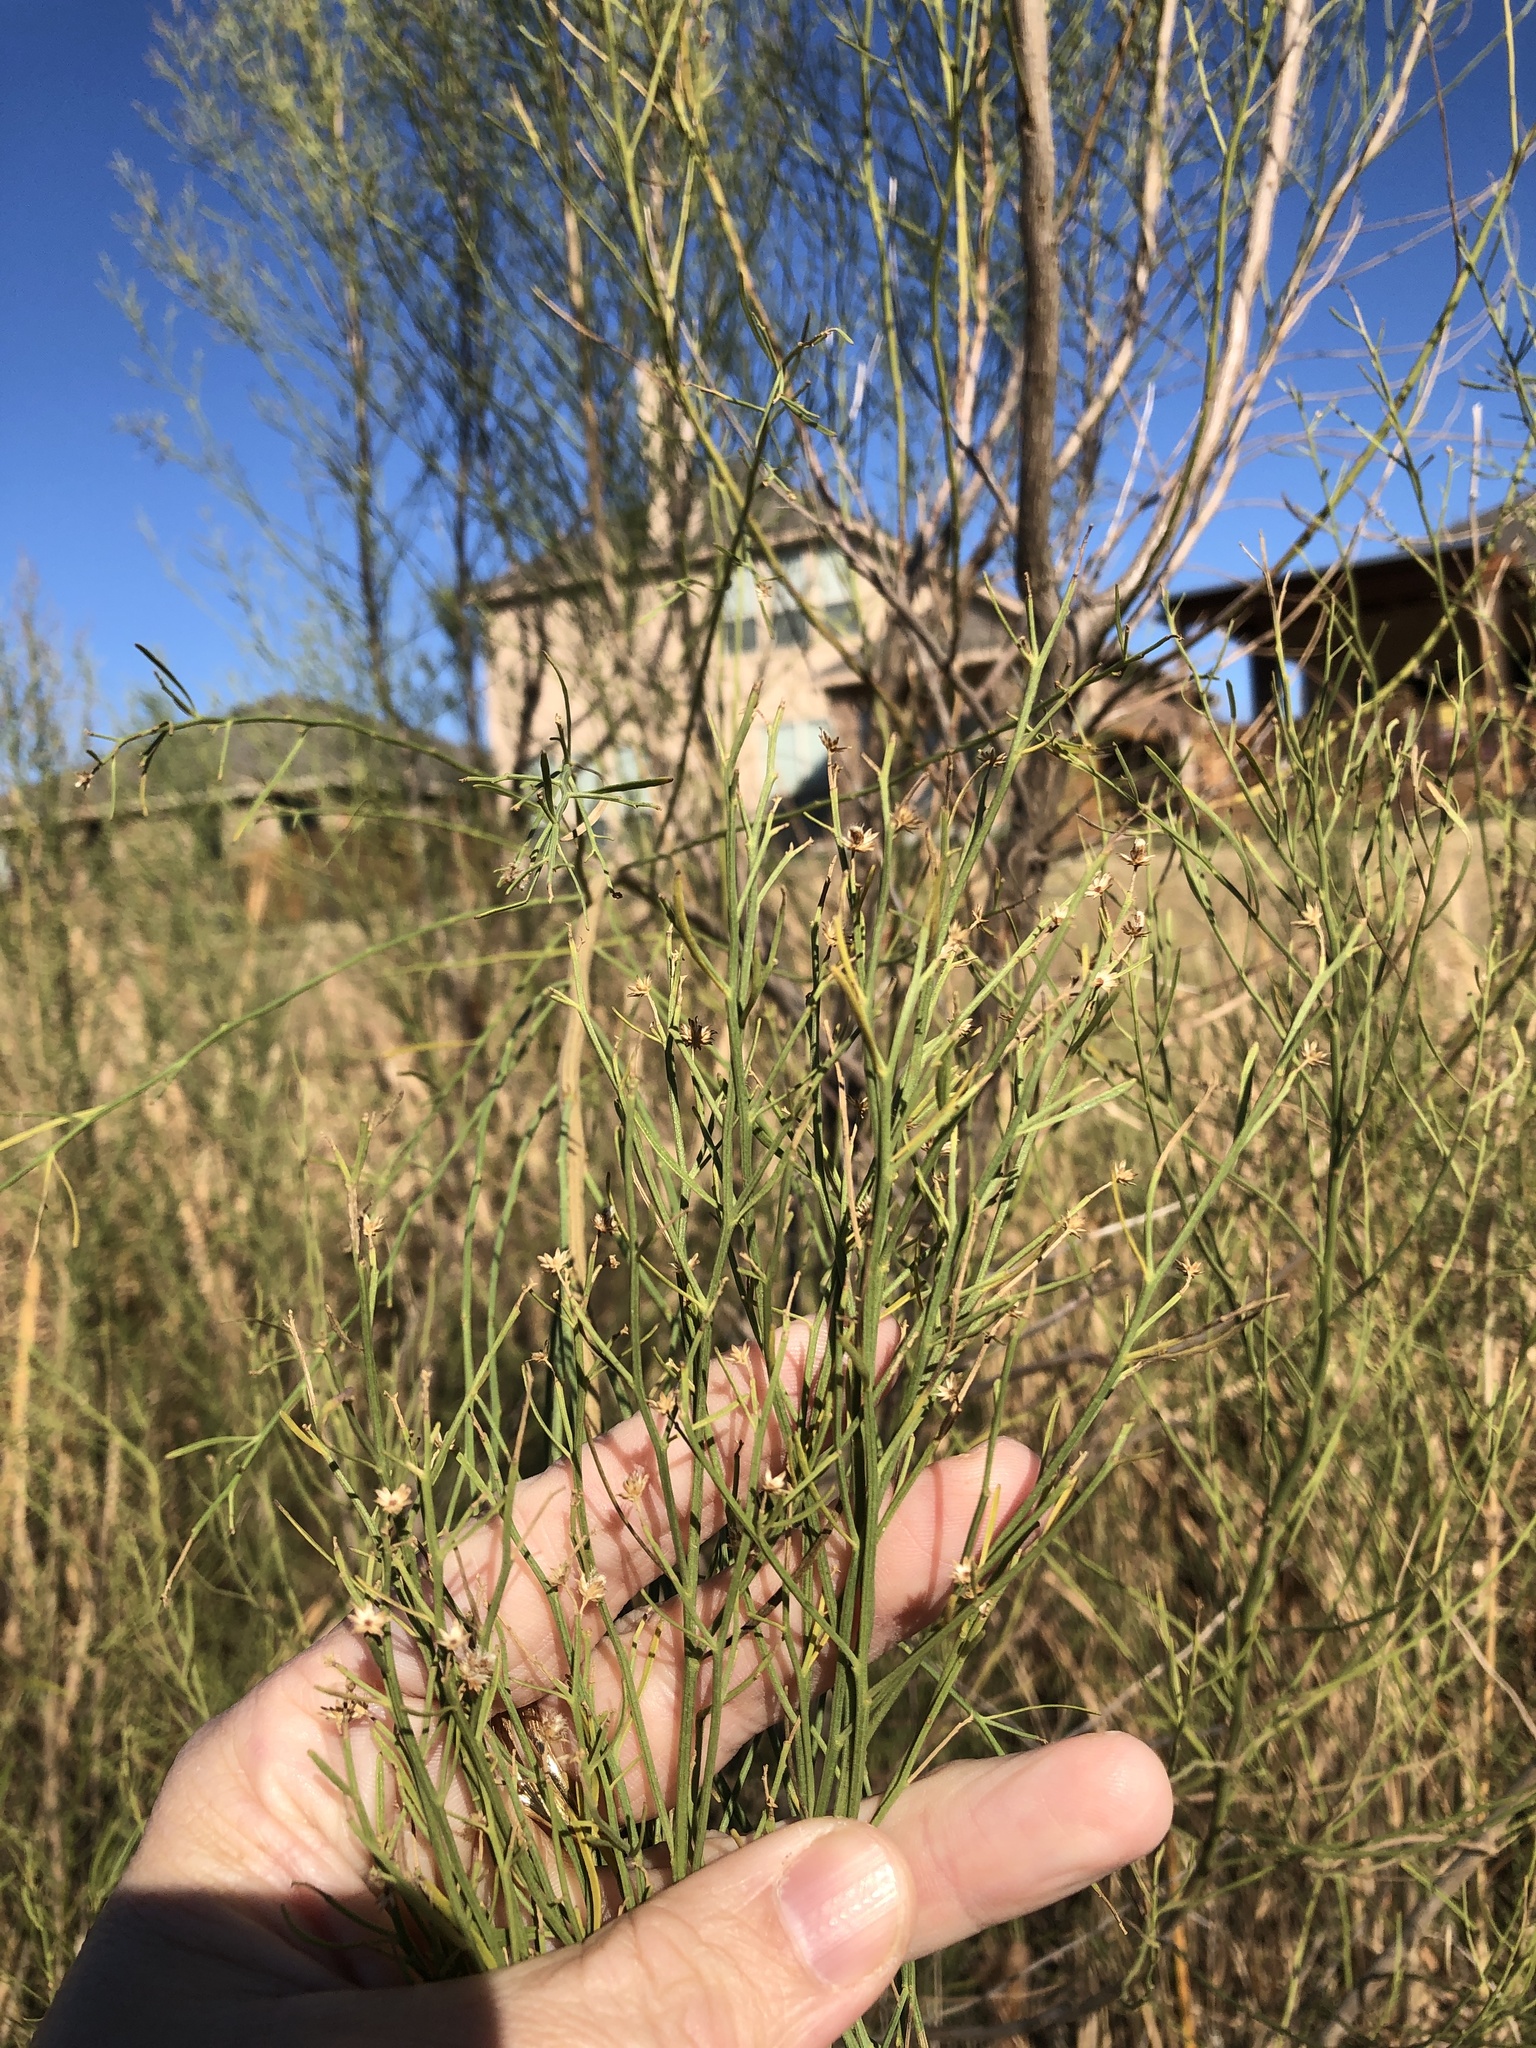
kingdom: Plantae
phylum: Tracheophyta
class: Magnoliopsida
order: Asterales
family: Asteraceae
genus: Baccharis
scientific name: Baccharis neglecta
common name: Roosevelt-weed
